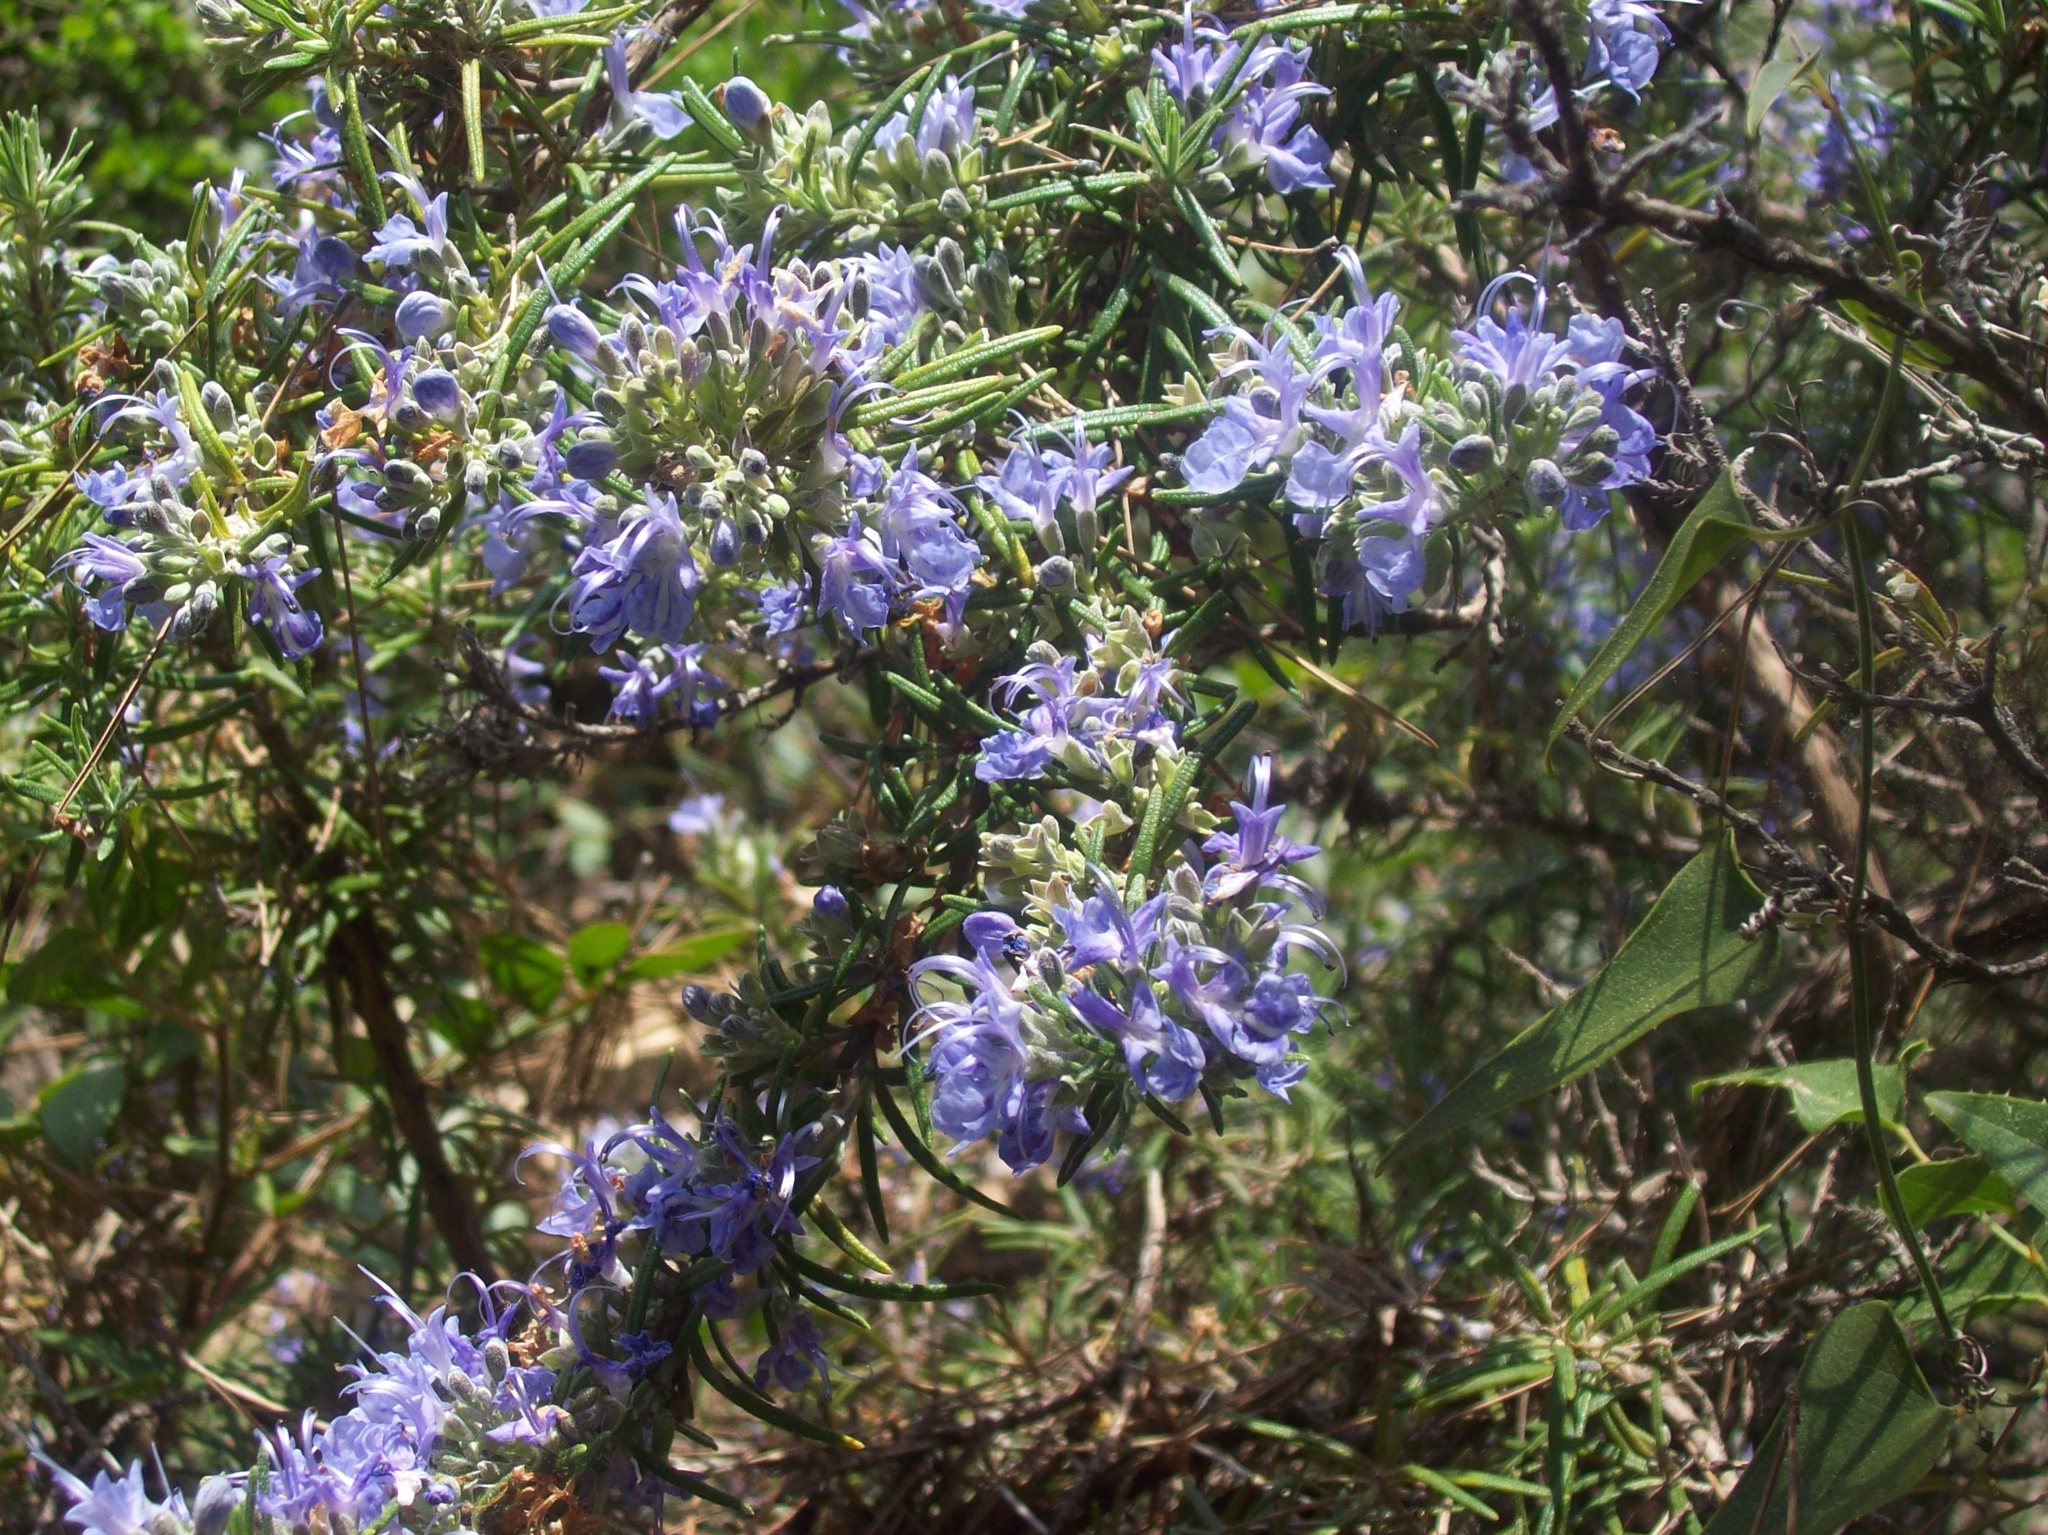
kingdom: Plantae
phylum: Tracheophyta
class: Magnoliopsida
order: Lamiales
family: Lamiaceae
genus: Salvia
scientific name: Salvia rosmarinus
